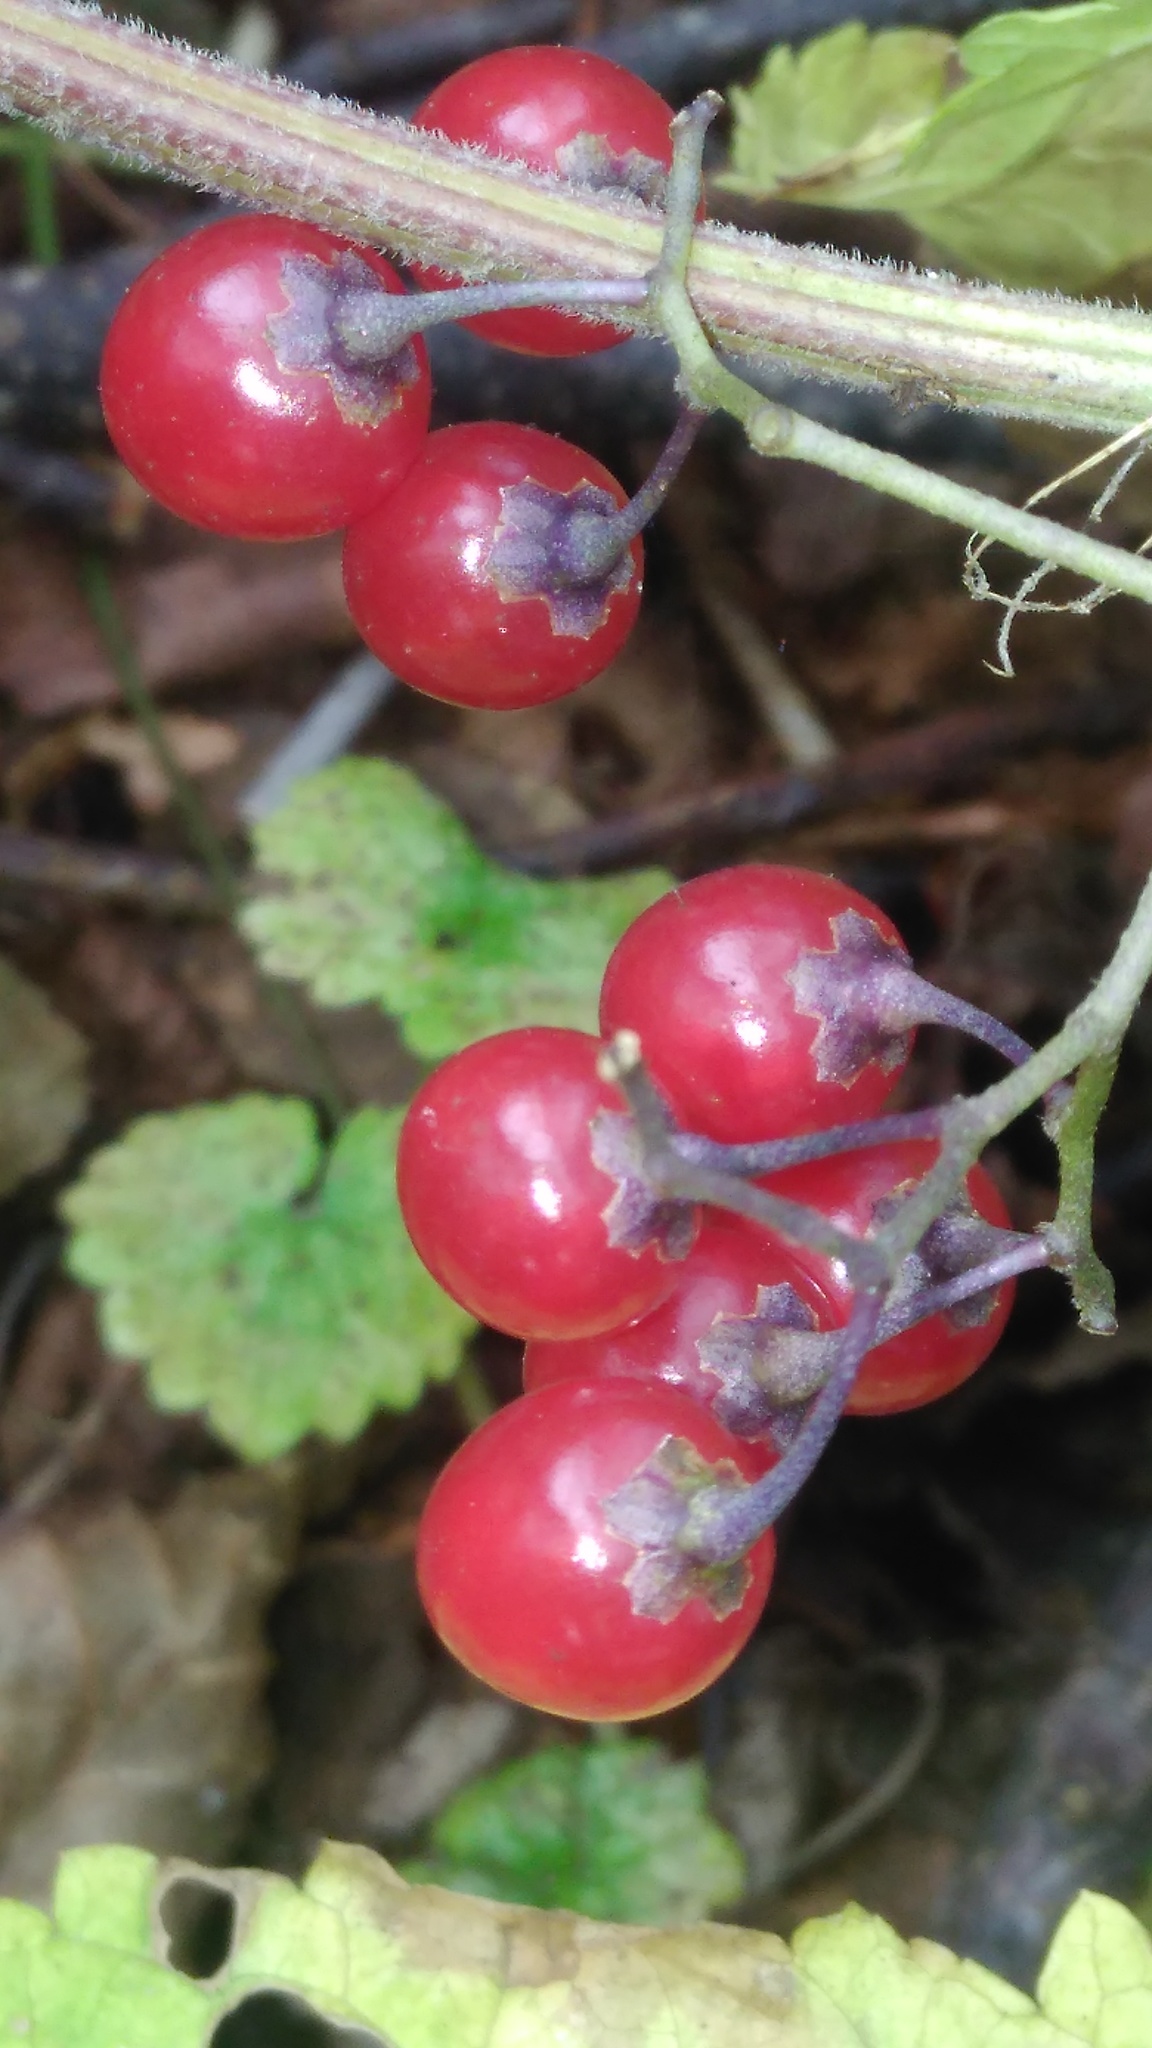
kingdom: Plantae
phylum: Tracheophyta
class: Magnoliopsida
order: Solanales
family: Solanaceae
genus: Solanum
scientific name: Solanum dulcamara
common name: Climbing nightshade
